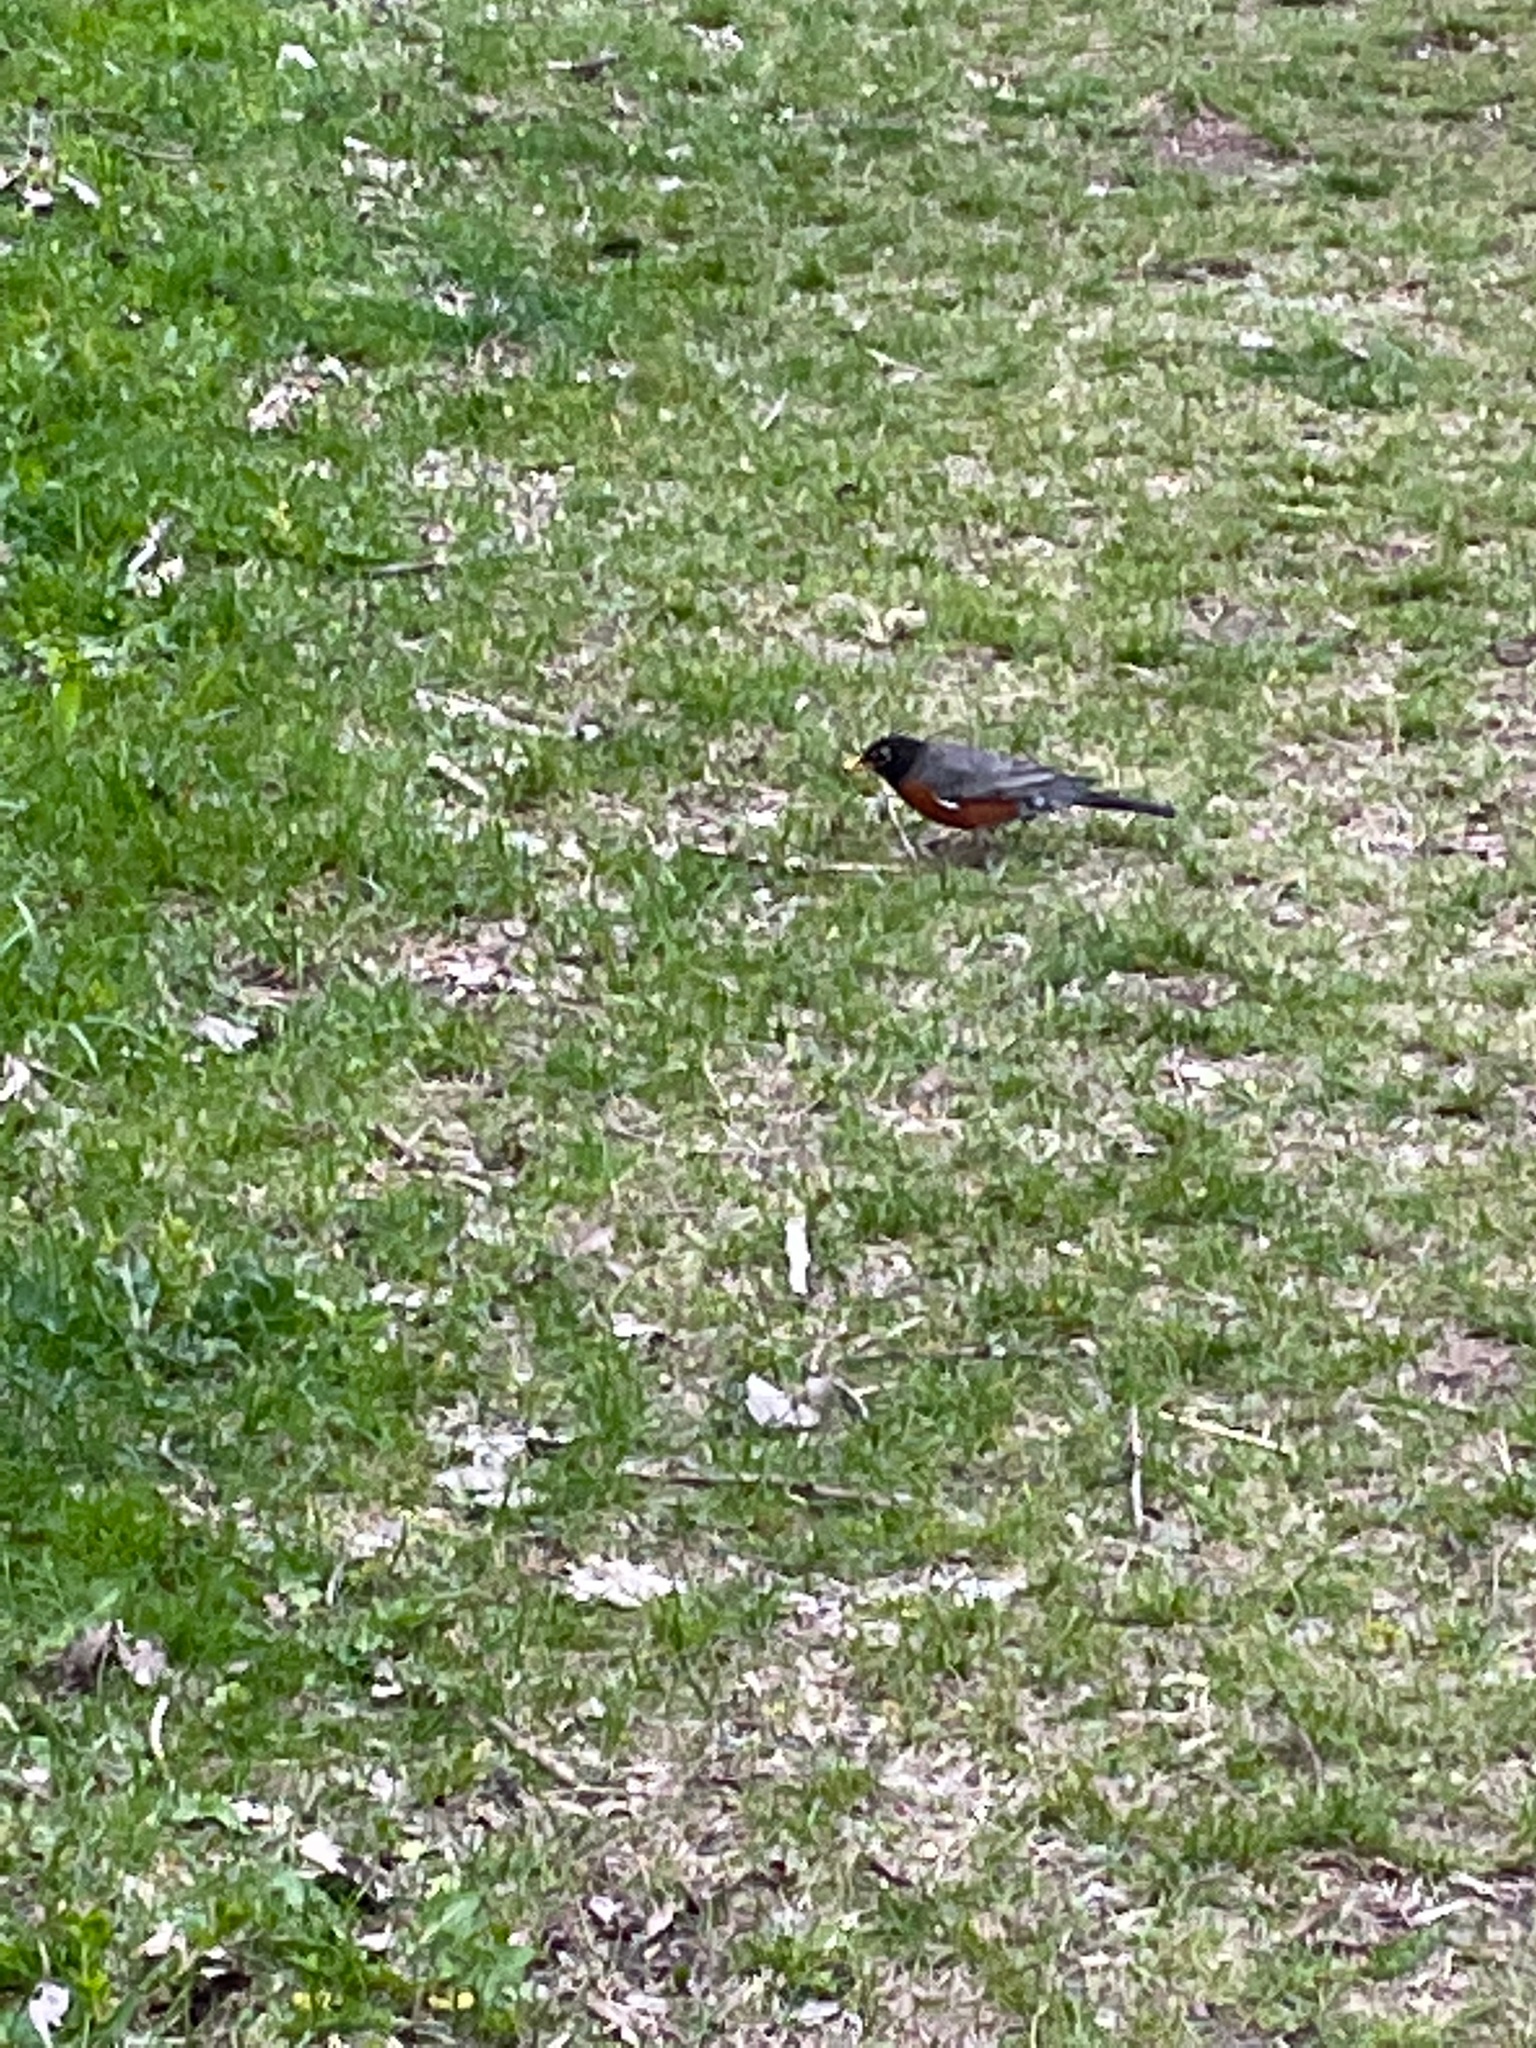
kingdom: Animalia
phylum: Chordata
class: Aves
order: Passeriformes
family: Turdidae
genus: Turdus
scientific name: Turdus migratorius
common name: American robin
